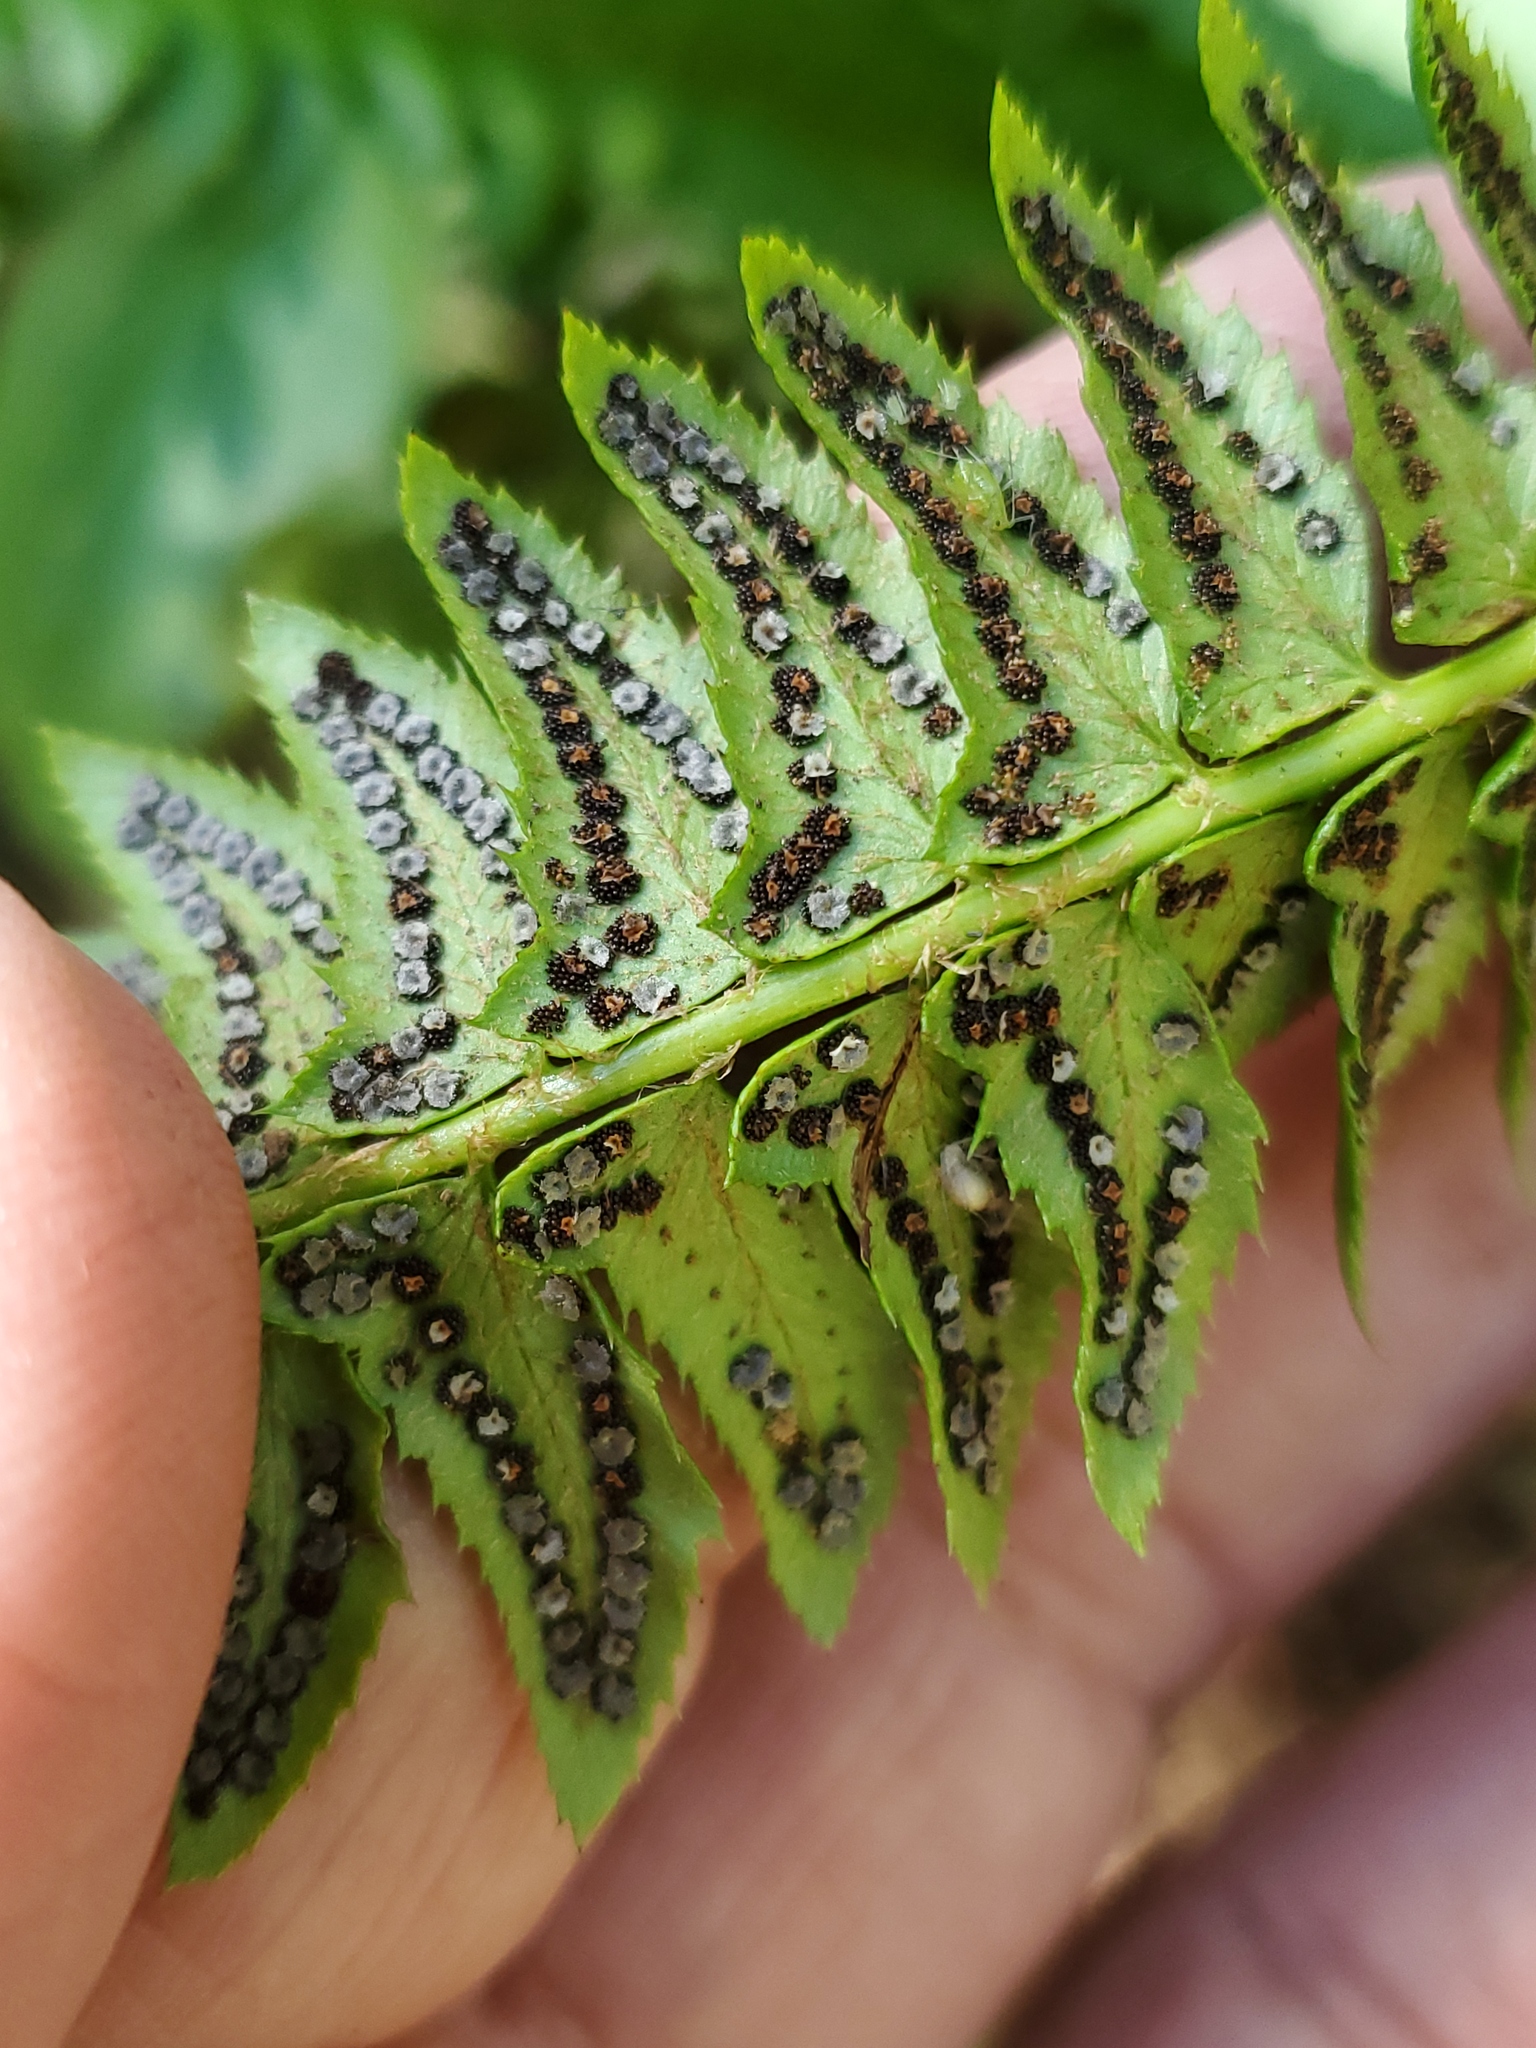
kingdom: Plantae
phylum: Tracheophyta
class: Polypodiopsida
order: Polypodiales
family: Dryopteridaceae
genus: Polystichum
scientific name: Polystichum lonchitis
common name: Holly fern
